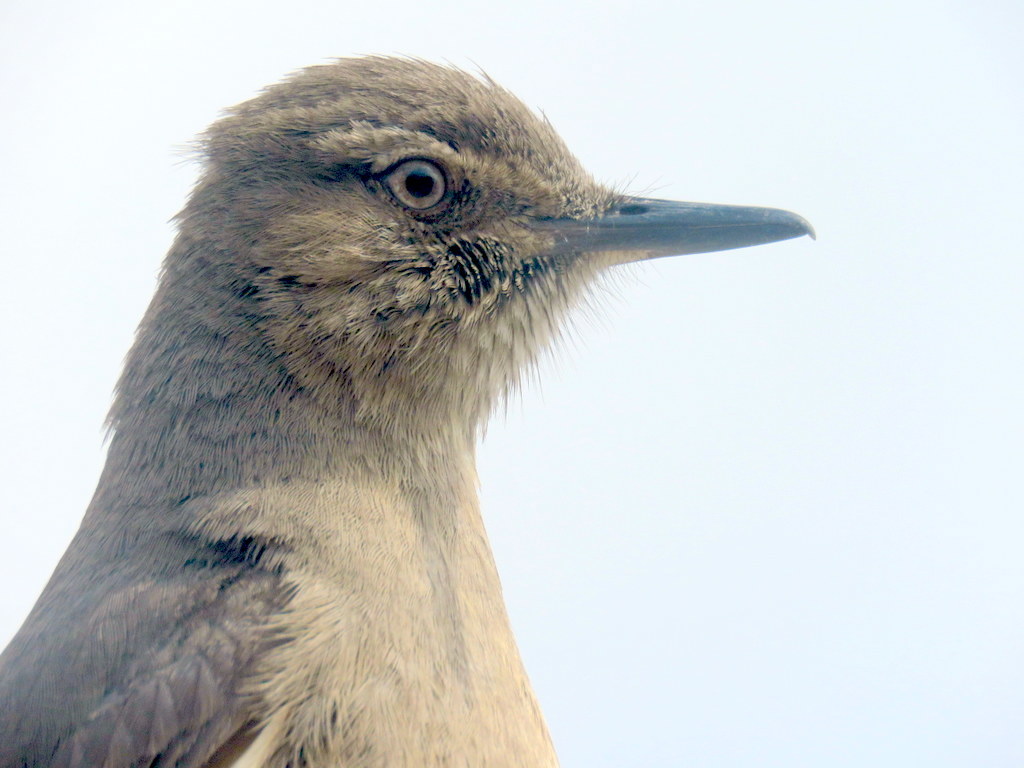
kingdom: Animalia
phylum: Chordata
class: Aves
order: Passeriformes
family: Tyrannidae
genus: Agriornis
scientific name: Agriornis montanus
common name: Black-billed shrike-tyrant
